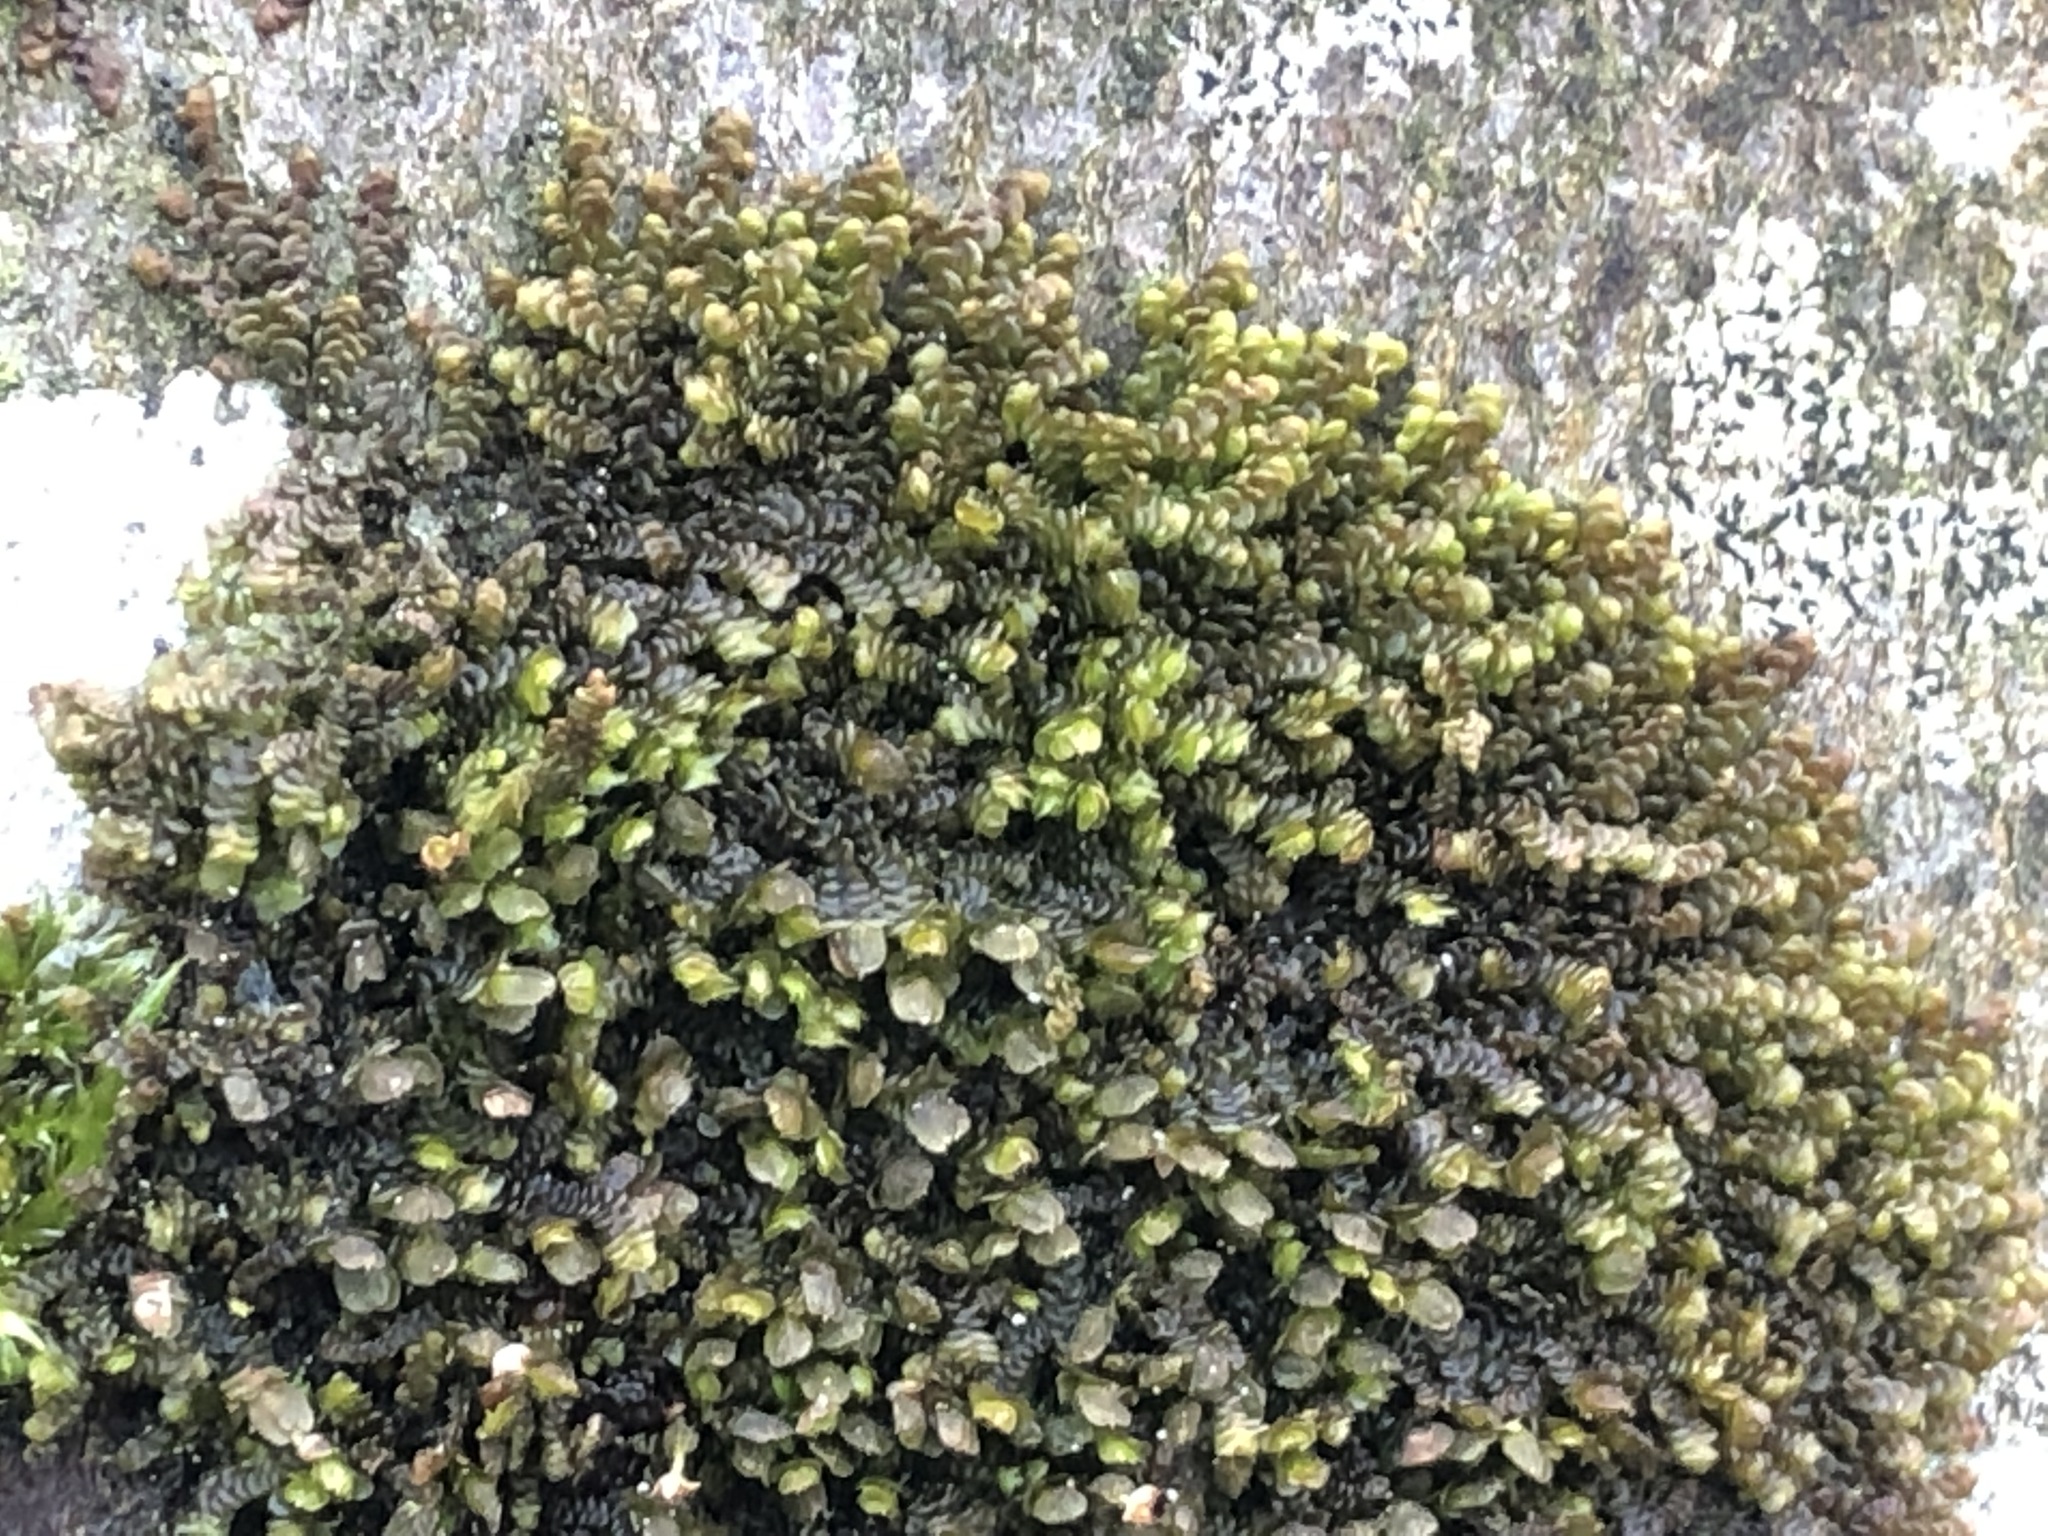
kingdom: Plantae
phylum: Marchantiophyta
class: Jungermanniopsida
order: Porellales
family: Frullaniaceae
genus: Frullania
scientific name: Frullania dilatata
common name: Dilated scalewort
